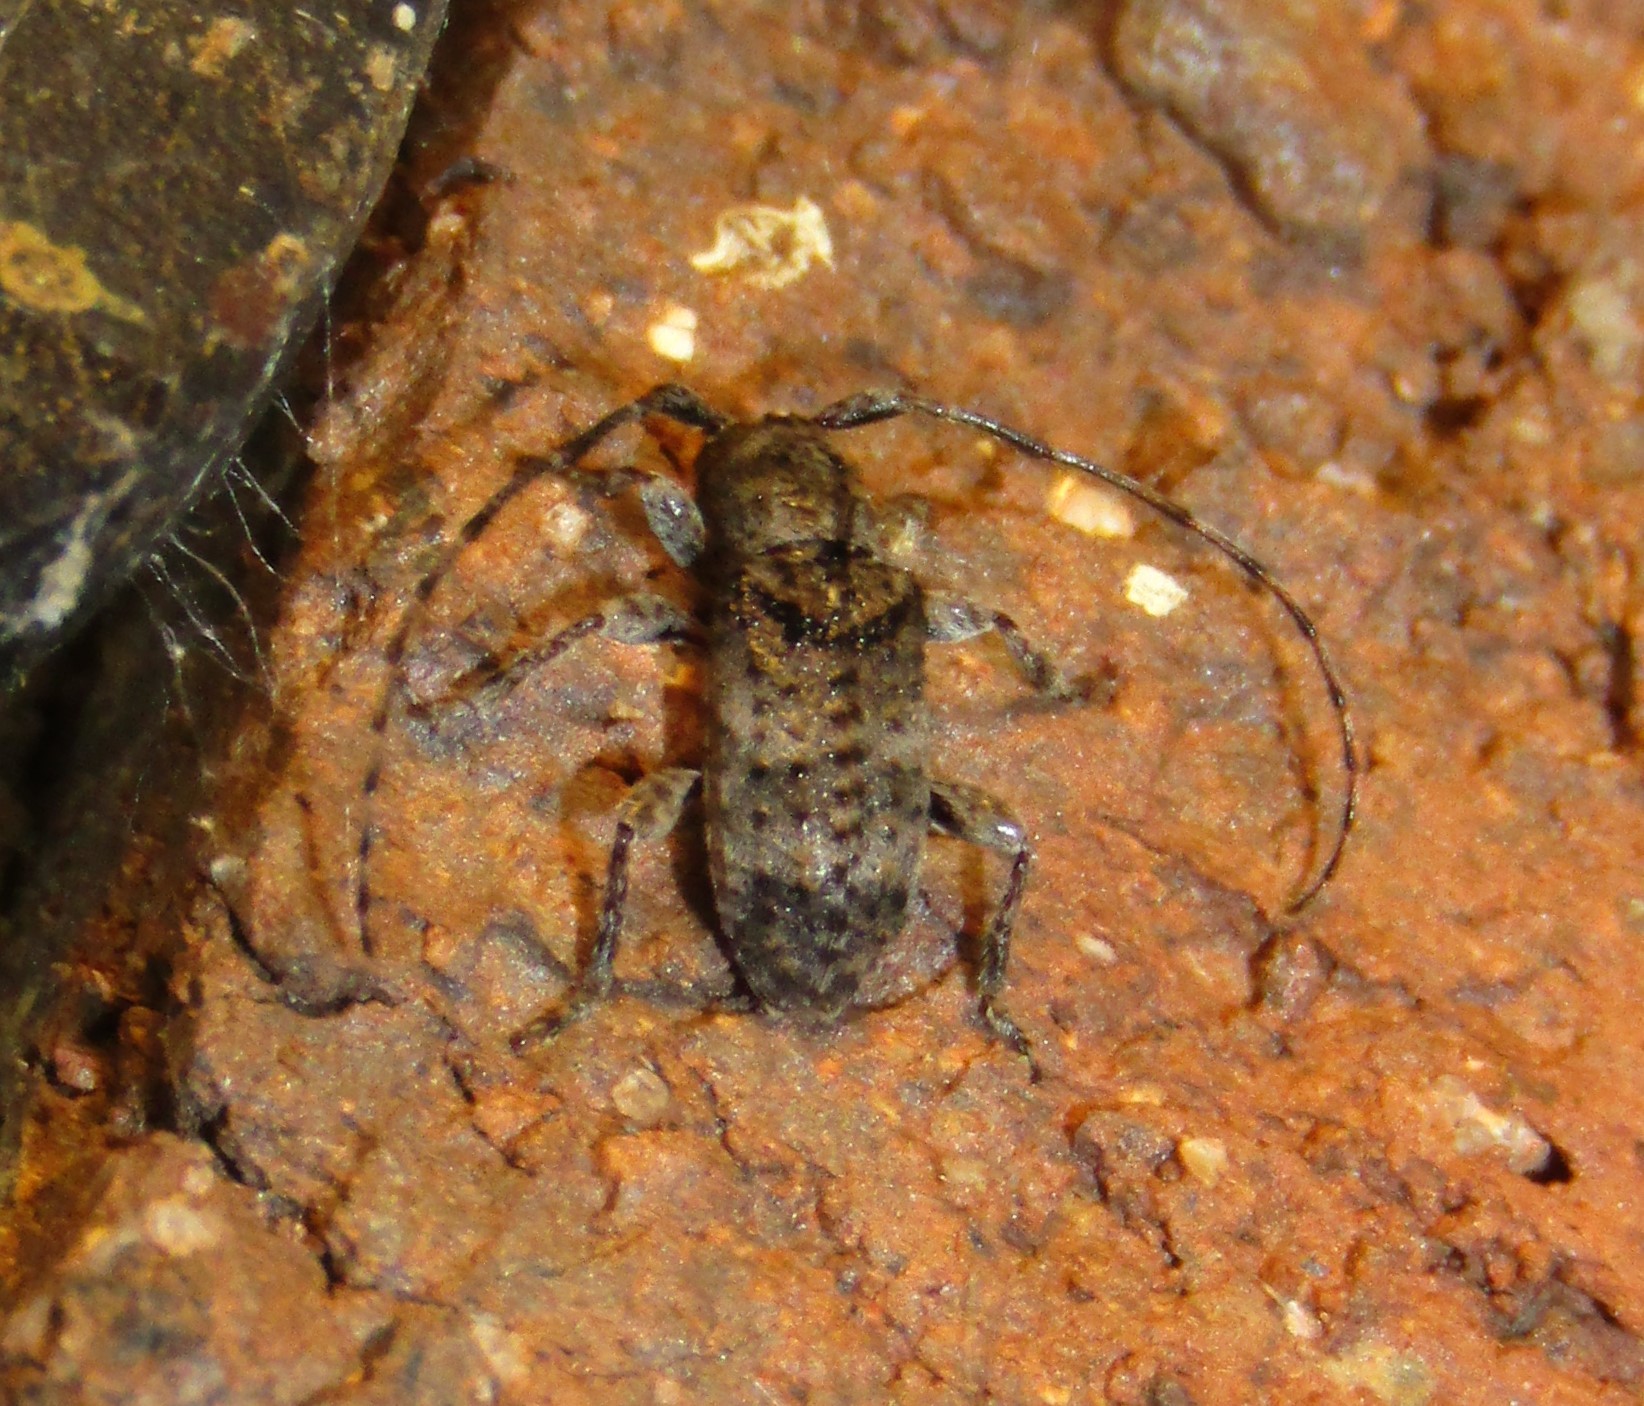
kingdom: Animalia
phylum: Arthropoda
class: Insecta
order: Coleoptera
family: Cerambycidae
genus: Ecyrus
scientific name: Ecyrus dasycerus
